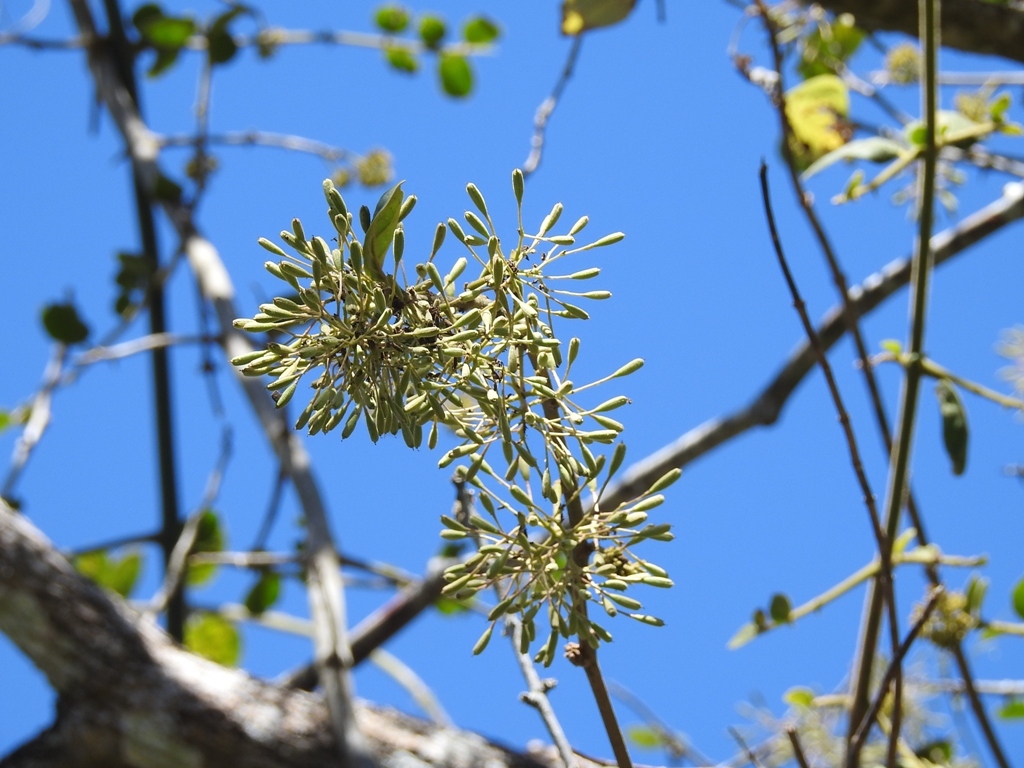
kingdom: Plantae
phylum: Tracheophyta
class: Magnoliopsida
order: Caryophyllales
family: Nyctaginaceae
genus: Pisonia
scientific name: Pisonia aculeata
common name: Cockspur vine
